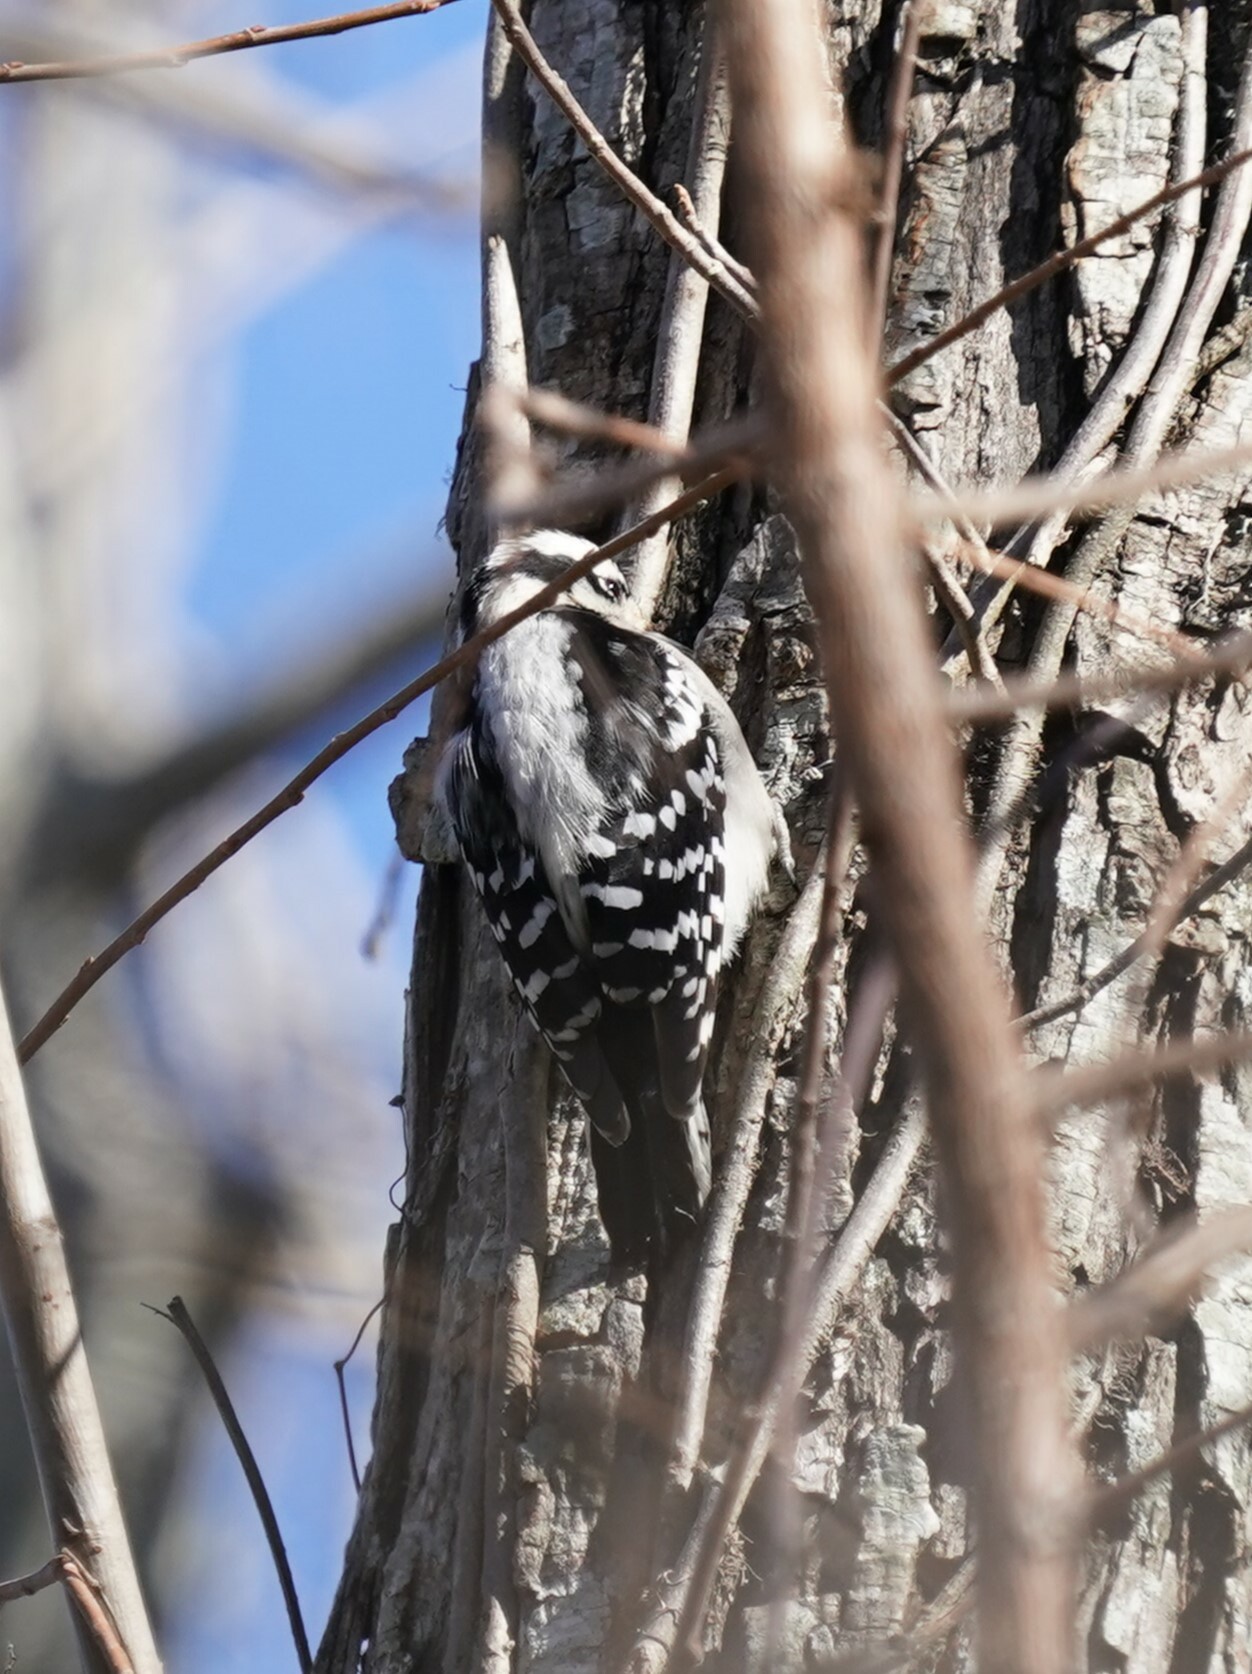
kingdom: Animalia
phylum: Chordata
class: Aves
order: Piciformes
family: Picidae
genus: Dryobates
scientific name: Dryobates pubescens
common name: Downy woodpecker
